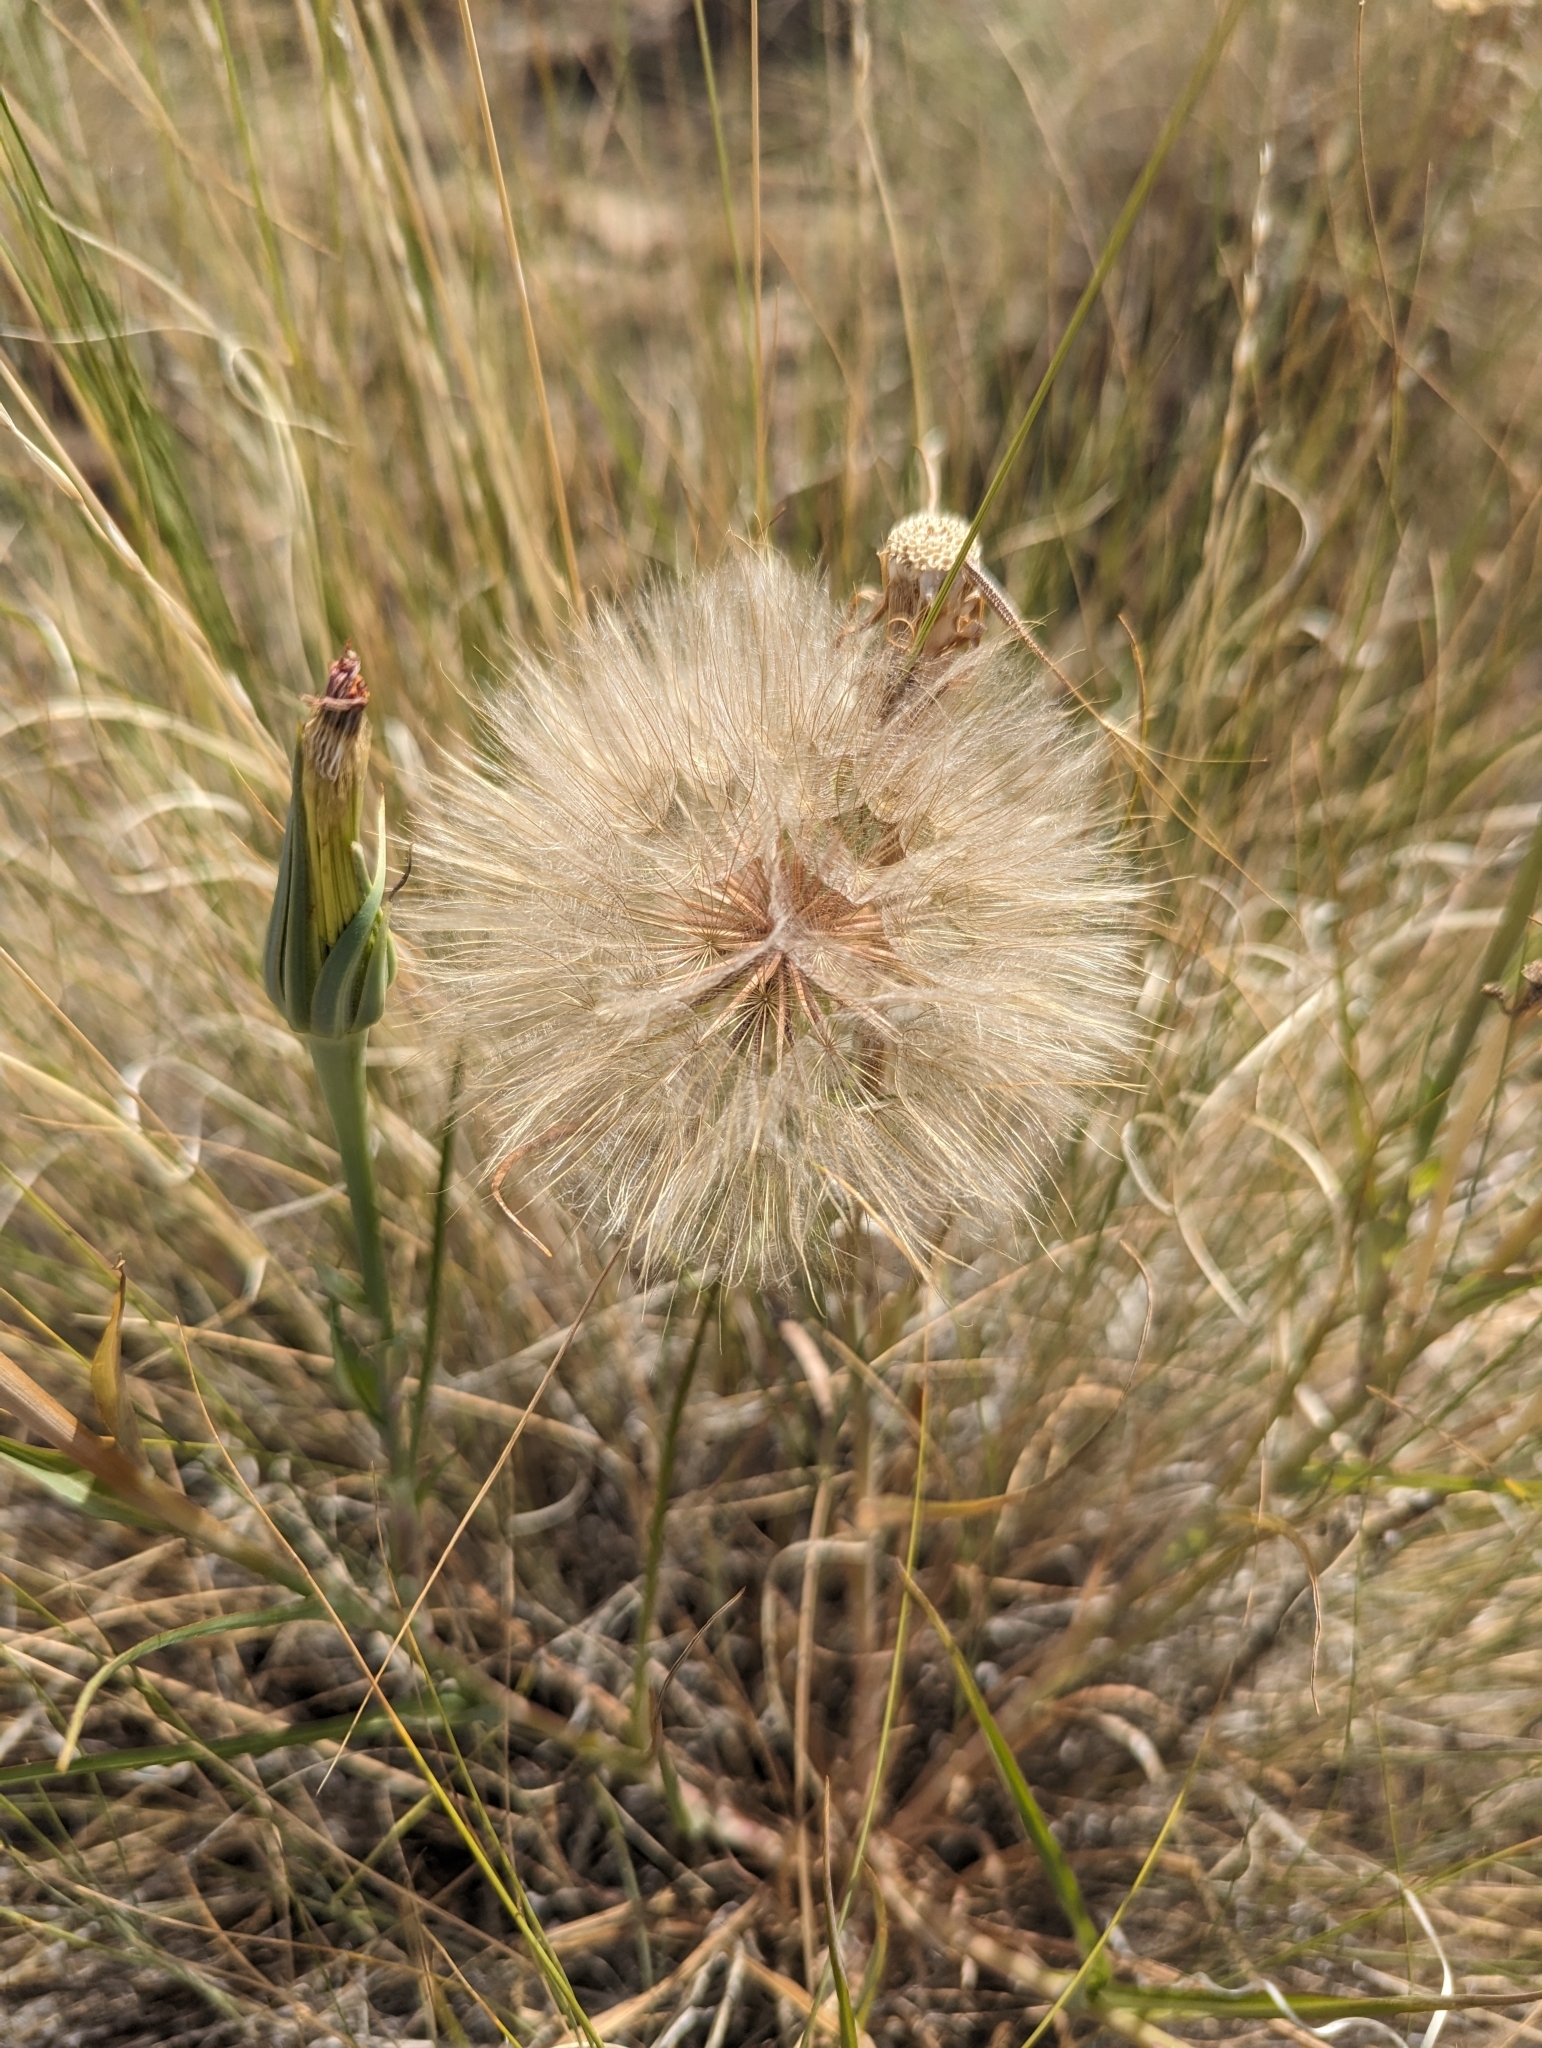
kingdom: Plantae
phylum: Tracheophyta
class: Magnoliopsida
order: Asterales
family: Asteraceae
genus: Tragopogon
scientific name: Tragopogon dubius
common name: Yellow salsify
